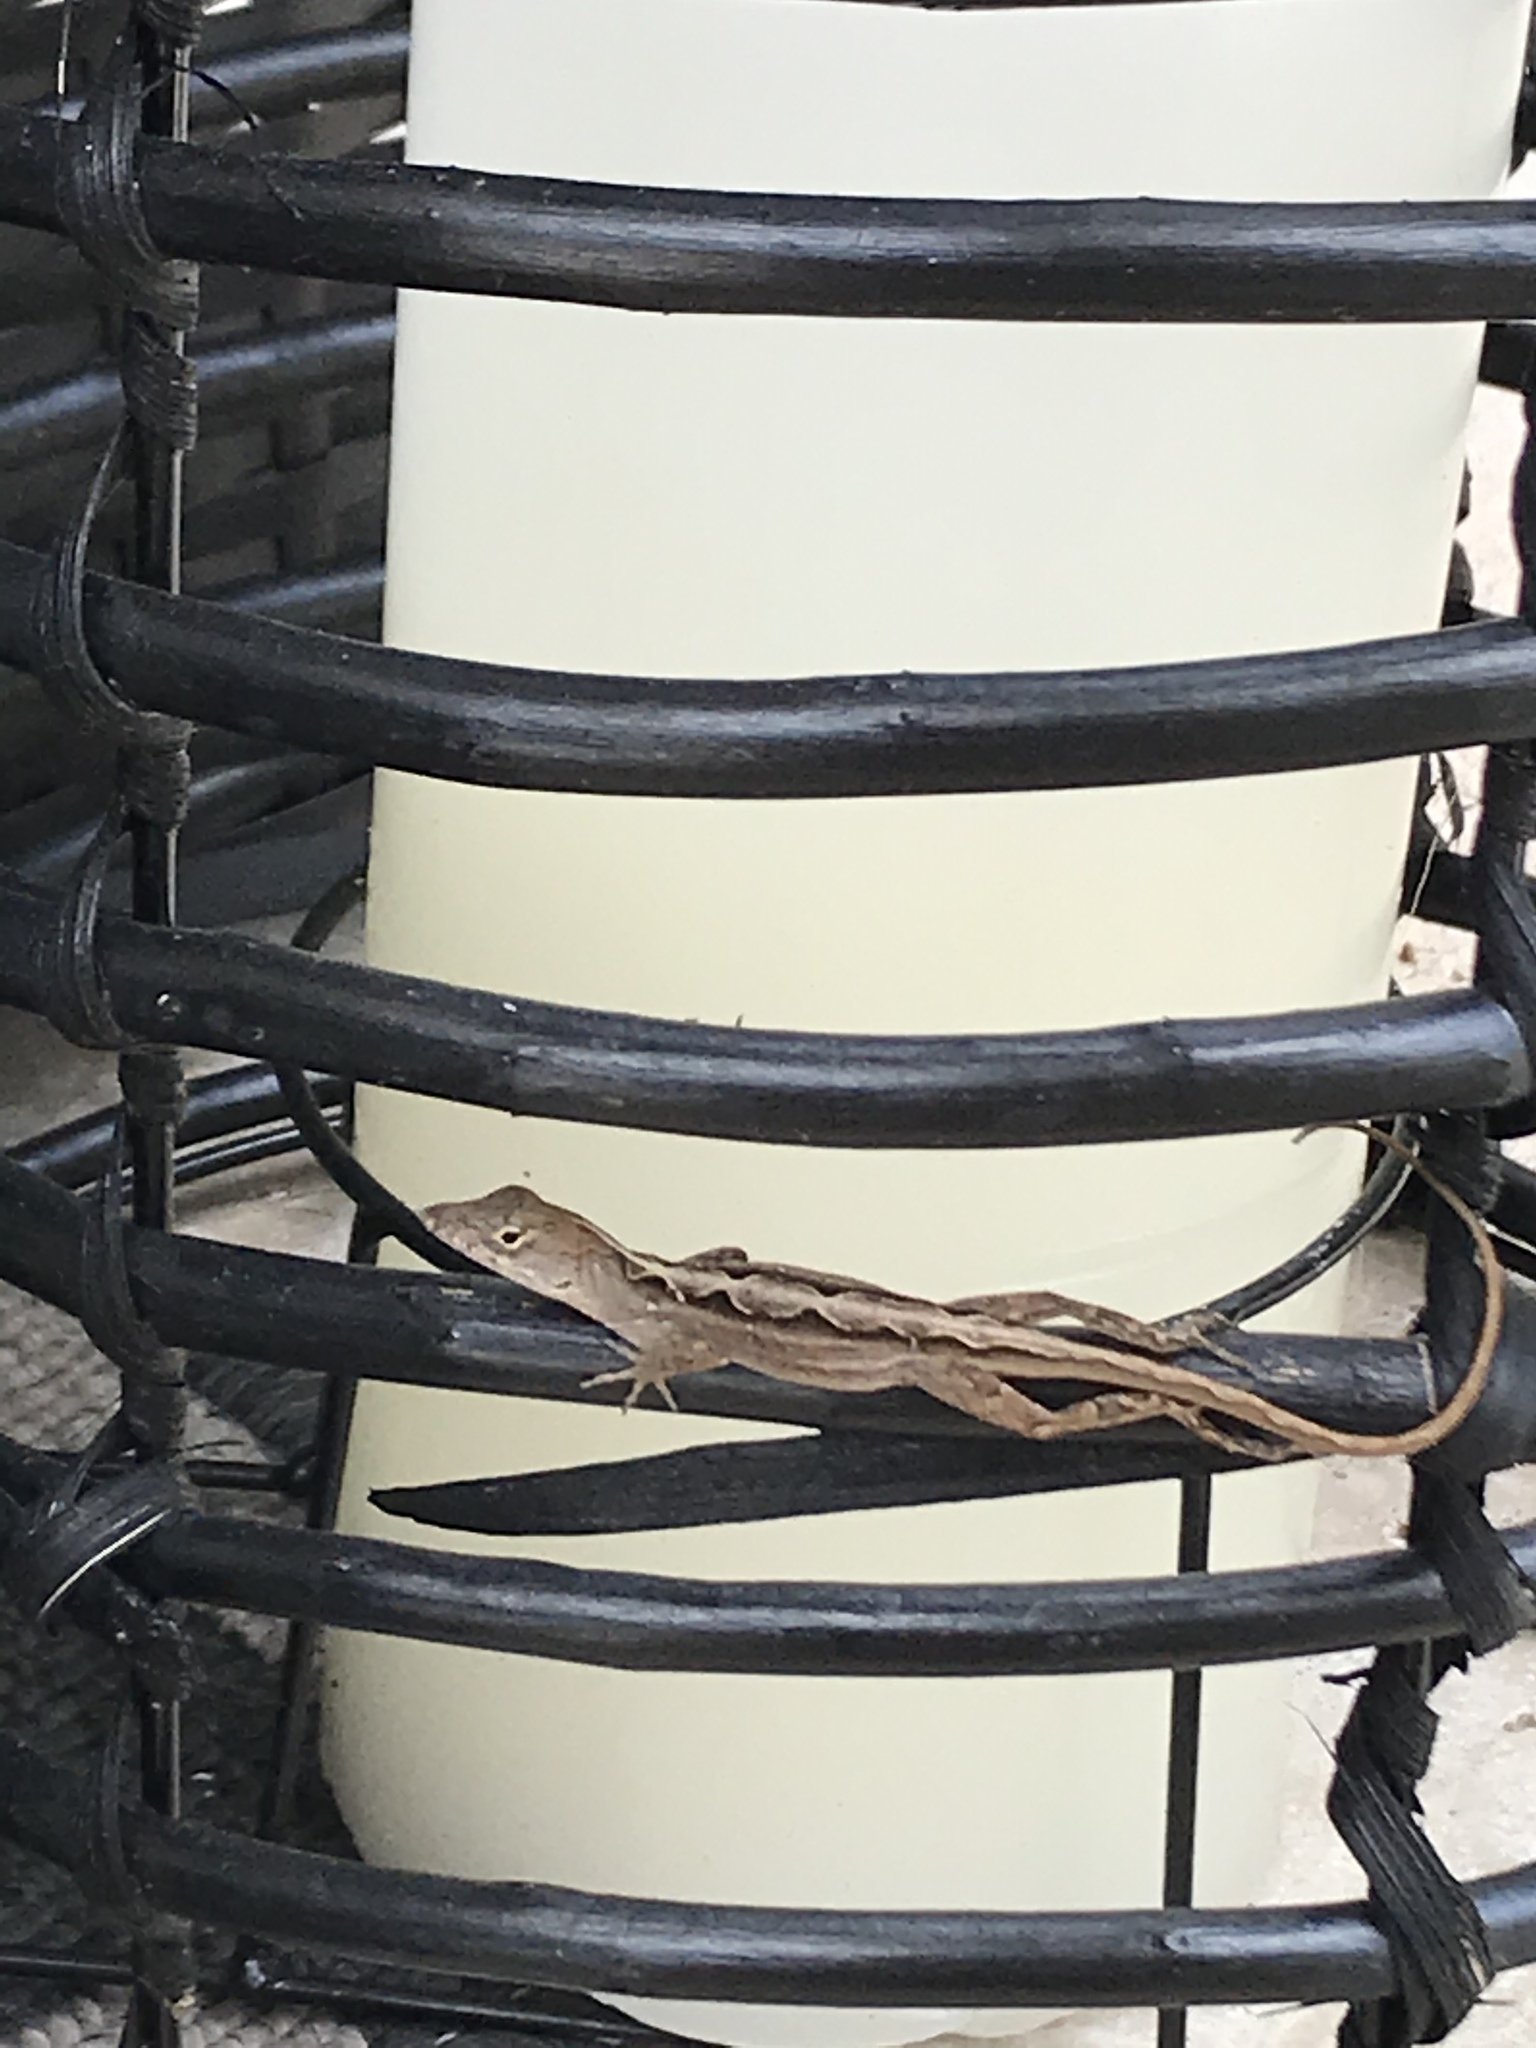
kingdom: Animalia
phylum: Chordata
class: Squamata
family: Dactyloidae
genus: Anolis
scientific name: Anolis sagrei
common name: Brown anole
